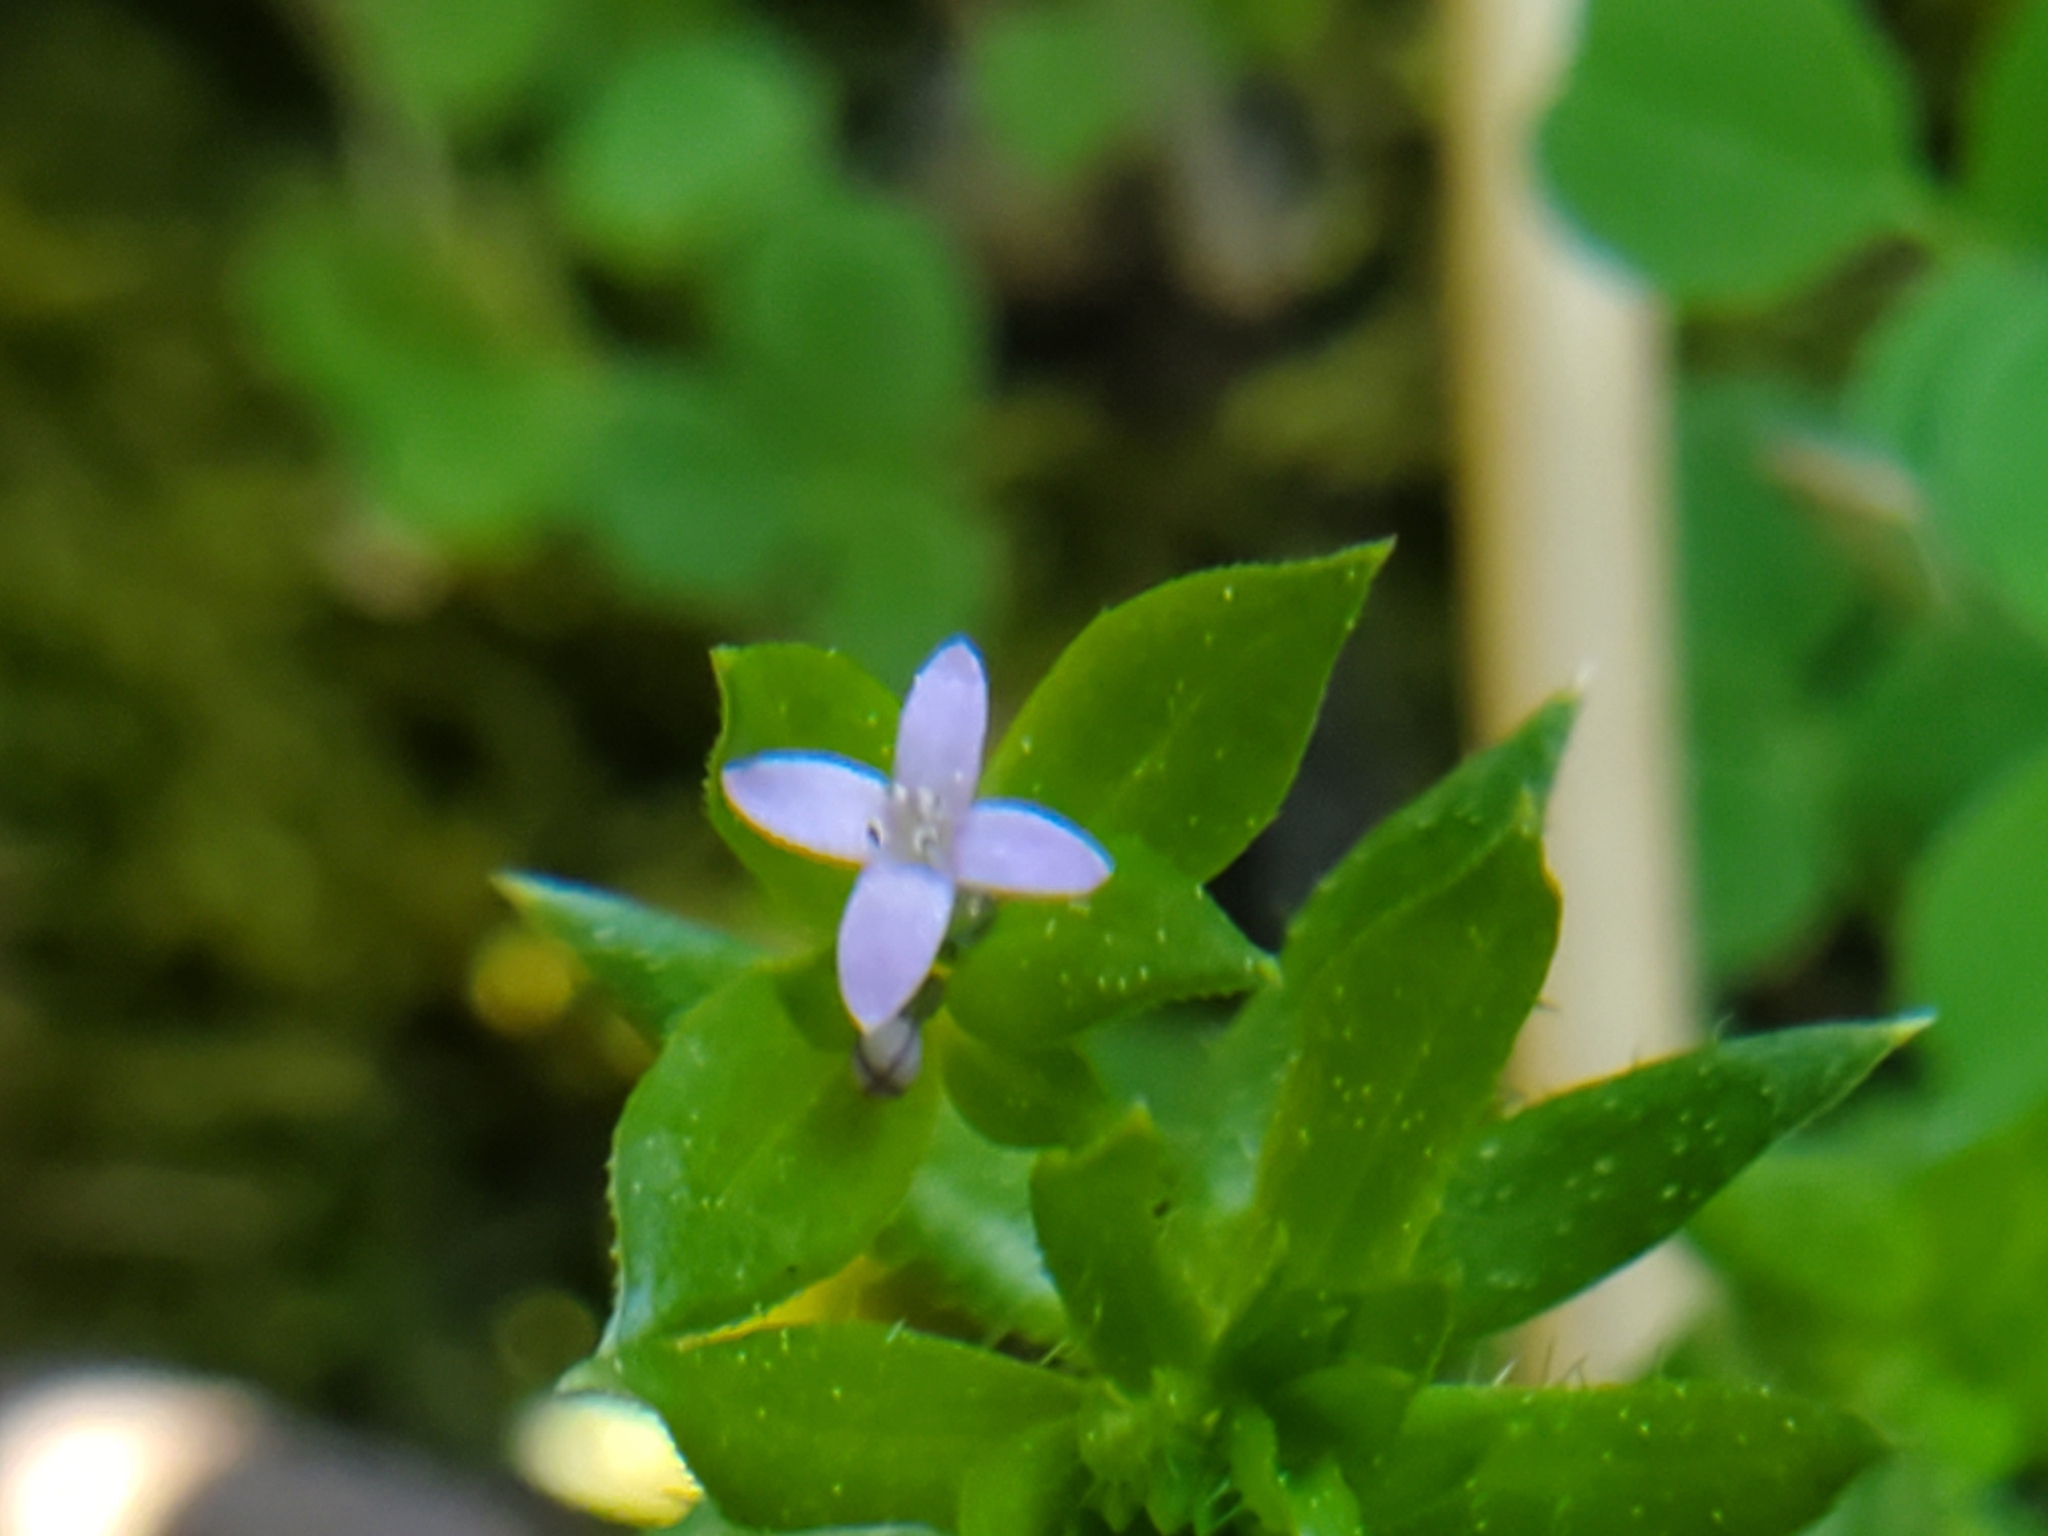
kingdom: Plantae
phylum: Tracheophyta
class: Magnoliopsida
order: Gentianales
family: Rubiaceae
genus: Sherardia
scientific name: Sherardia arvensis
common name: Field madder
